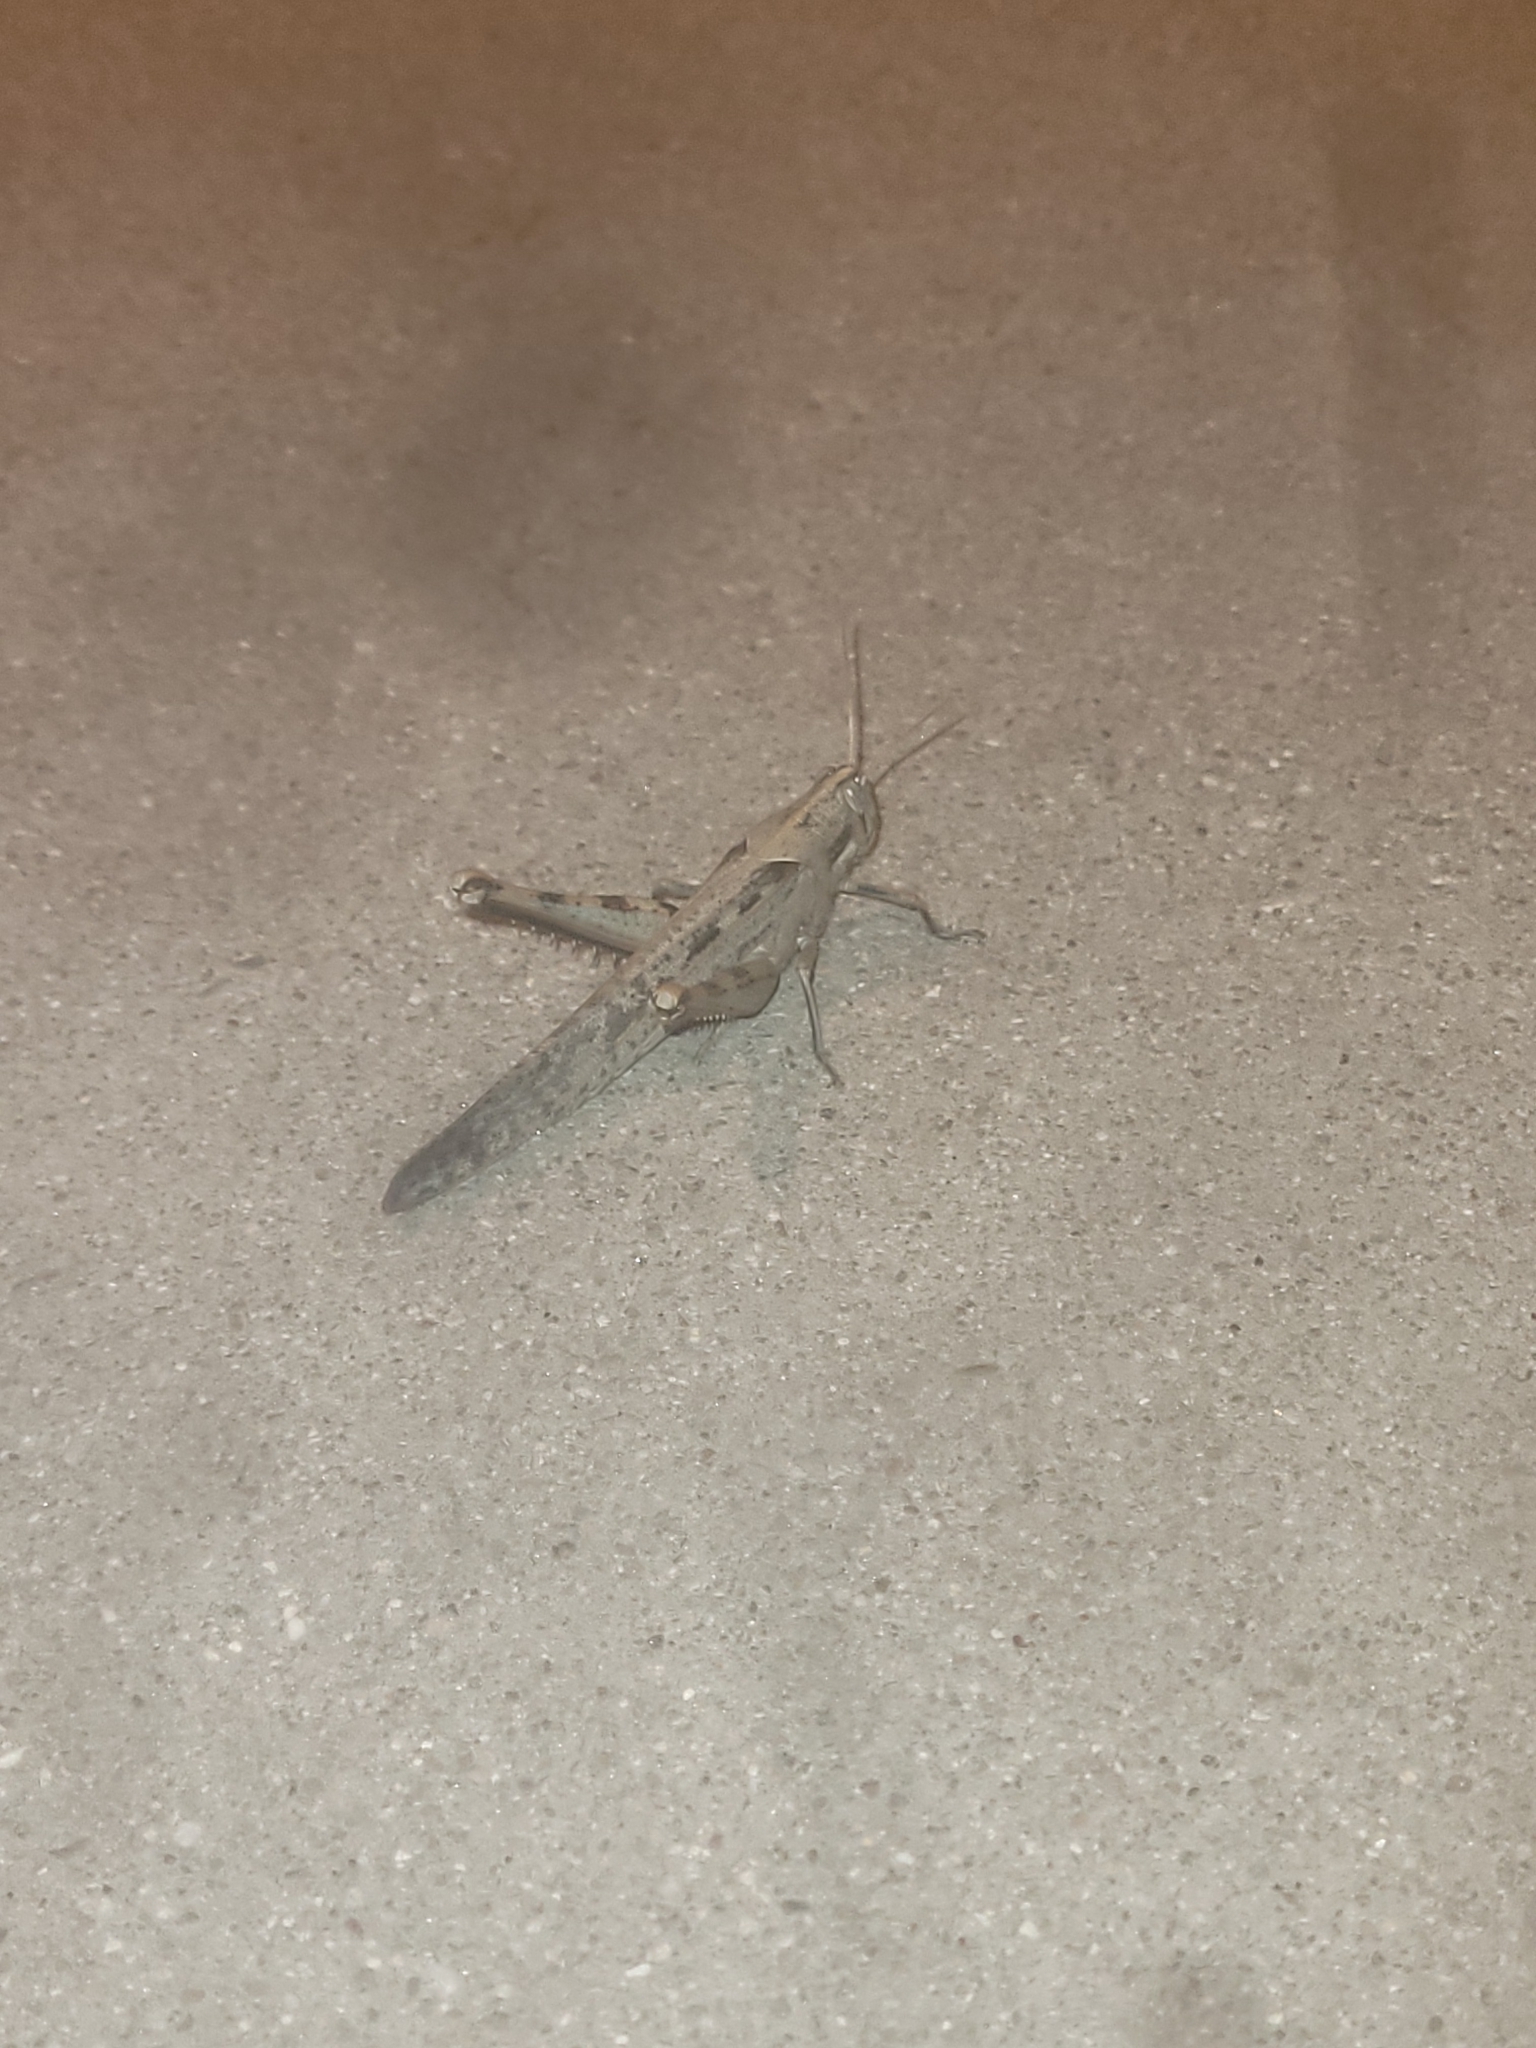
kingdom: Animalia
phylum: Arthropoda
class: Insecta
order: Orthoptera
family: Acrididae
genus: Schistocerca
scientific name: Schistocerca nitens
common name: Vagrant grasshopper
